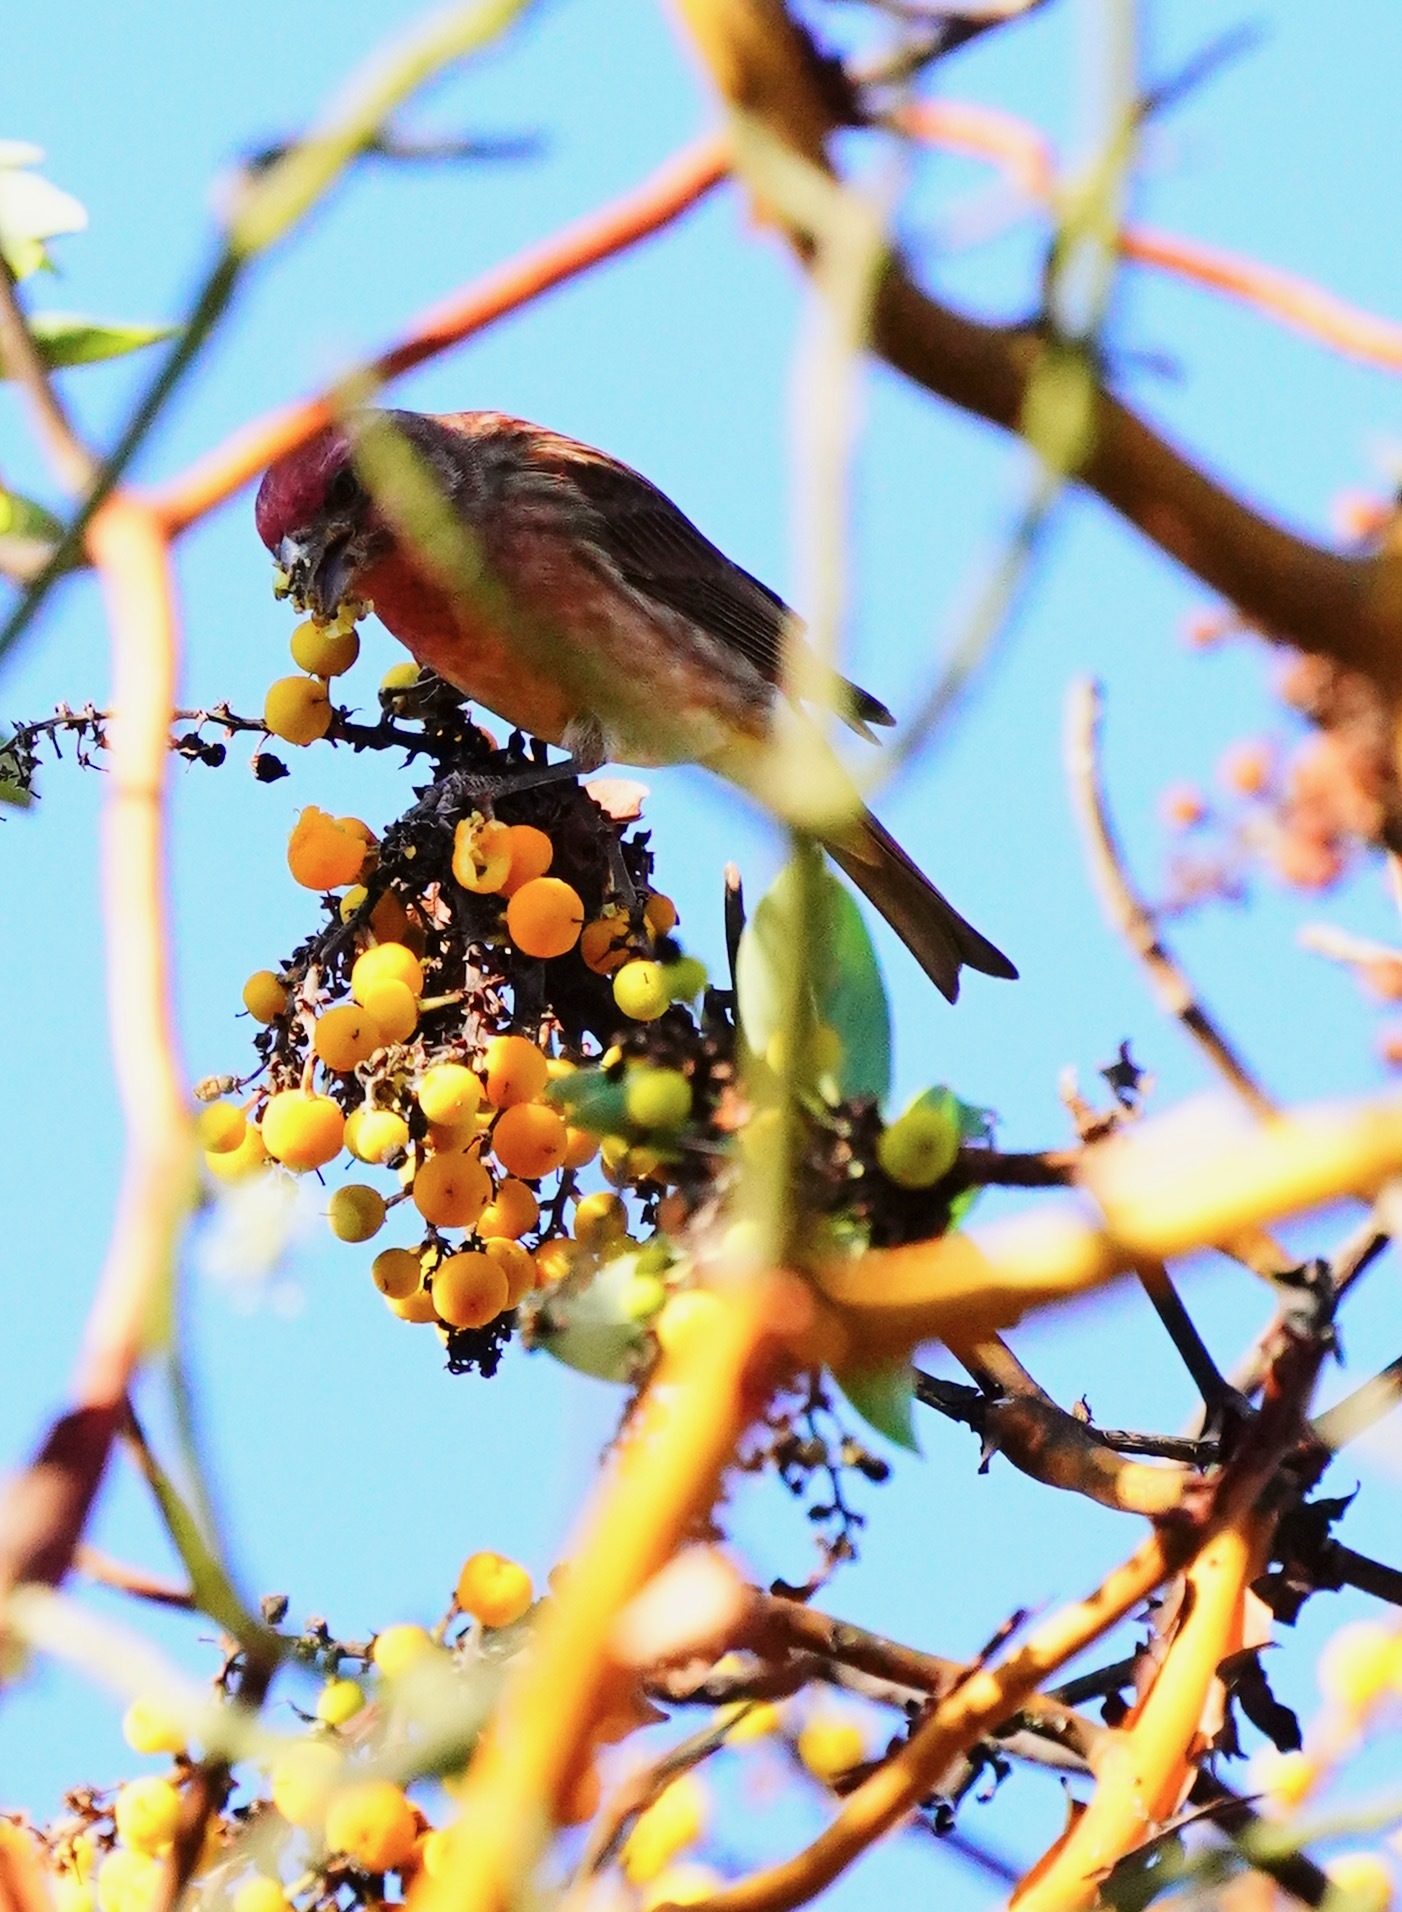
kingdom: Animalia
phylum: Chordata
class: Aves
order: Passeriformes
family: Fringillidae
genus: Haemorhous
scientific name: Haemorhous purpureus
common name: Purple finch
